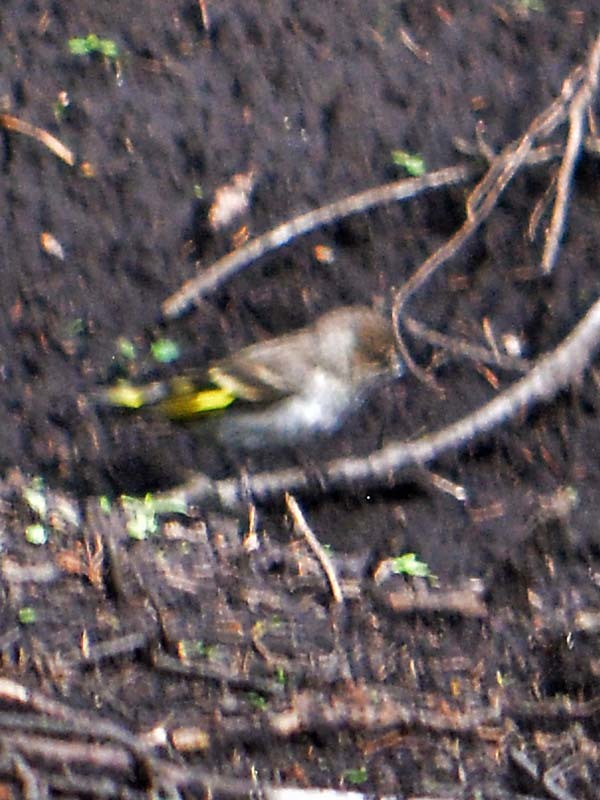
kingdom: Animalia
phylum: Chordata
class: Aves
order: Passeriformes
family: Fringillidae
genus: Spinus
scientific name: Spinus pinus
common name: Pine siskin
